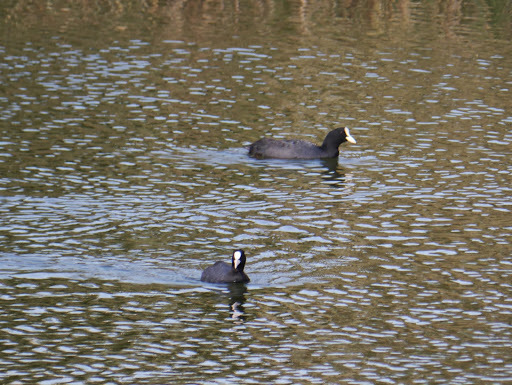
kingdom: Animalia
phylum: Chordata
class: Aves
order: Gruiformes
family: Rallidae
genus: Fulica
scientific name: Fulica atra
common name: Eurasian coot
